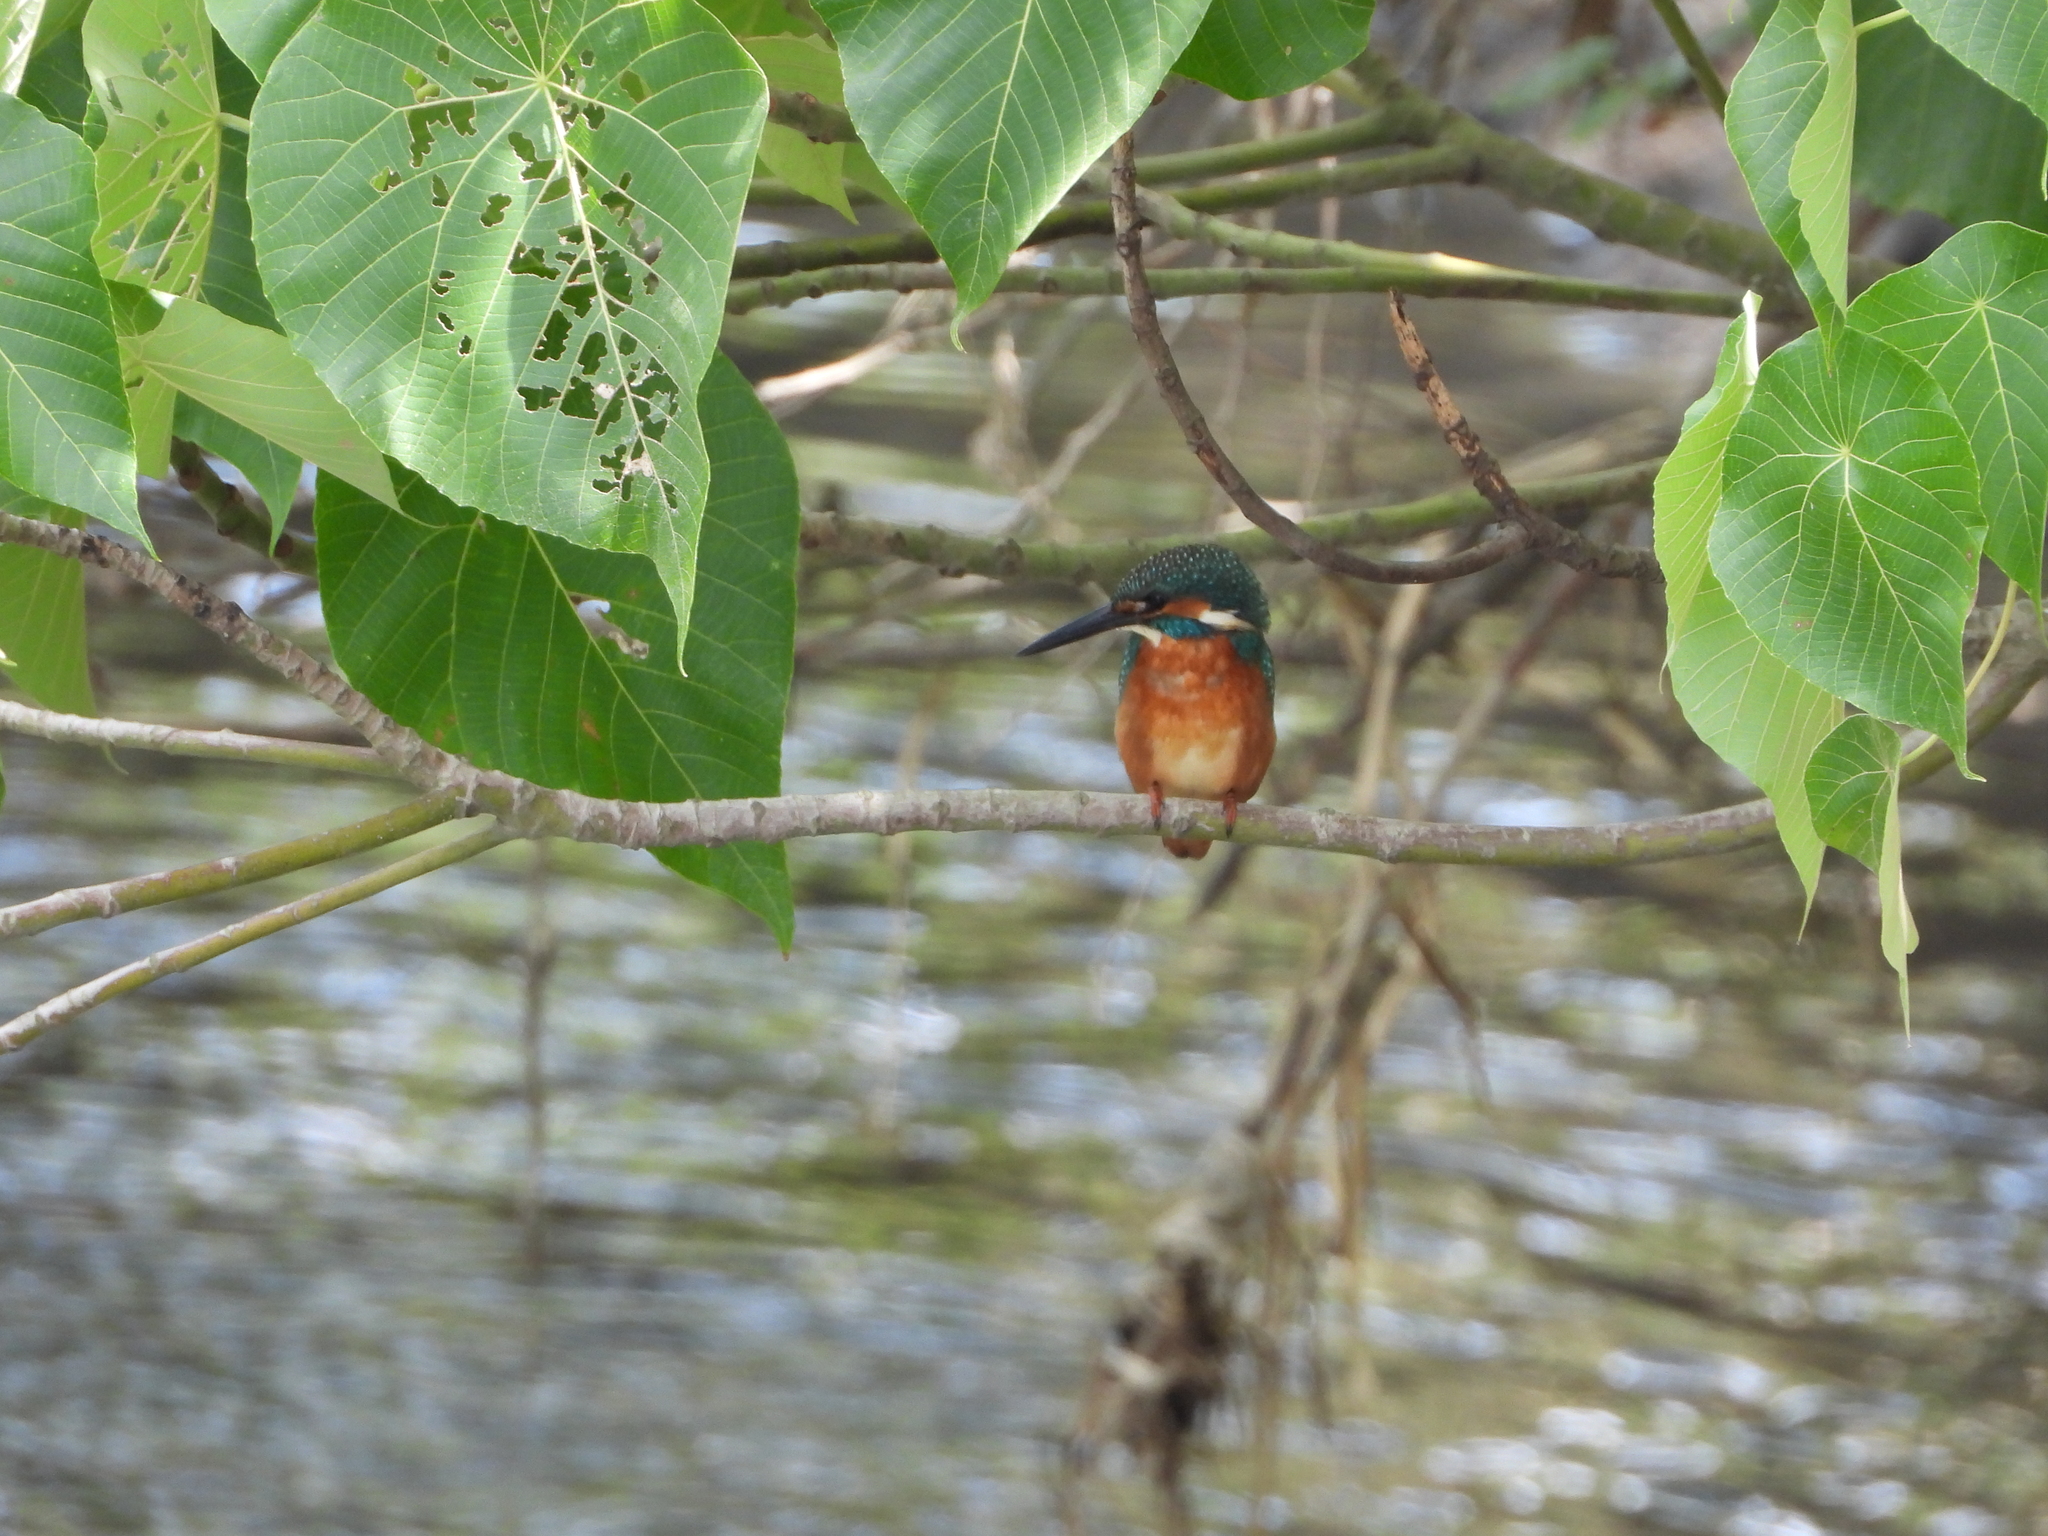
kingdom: Animalia
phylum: Chordata
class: Aves
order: Coraciiformes
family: Alcedinidae
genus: Alcedo
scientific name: Alcedo atthis
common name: Common kingfisher
